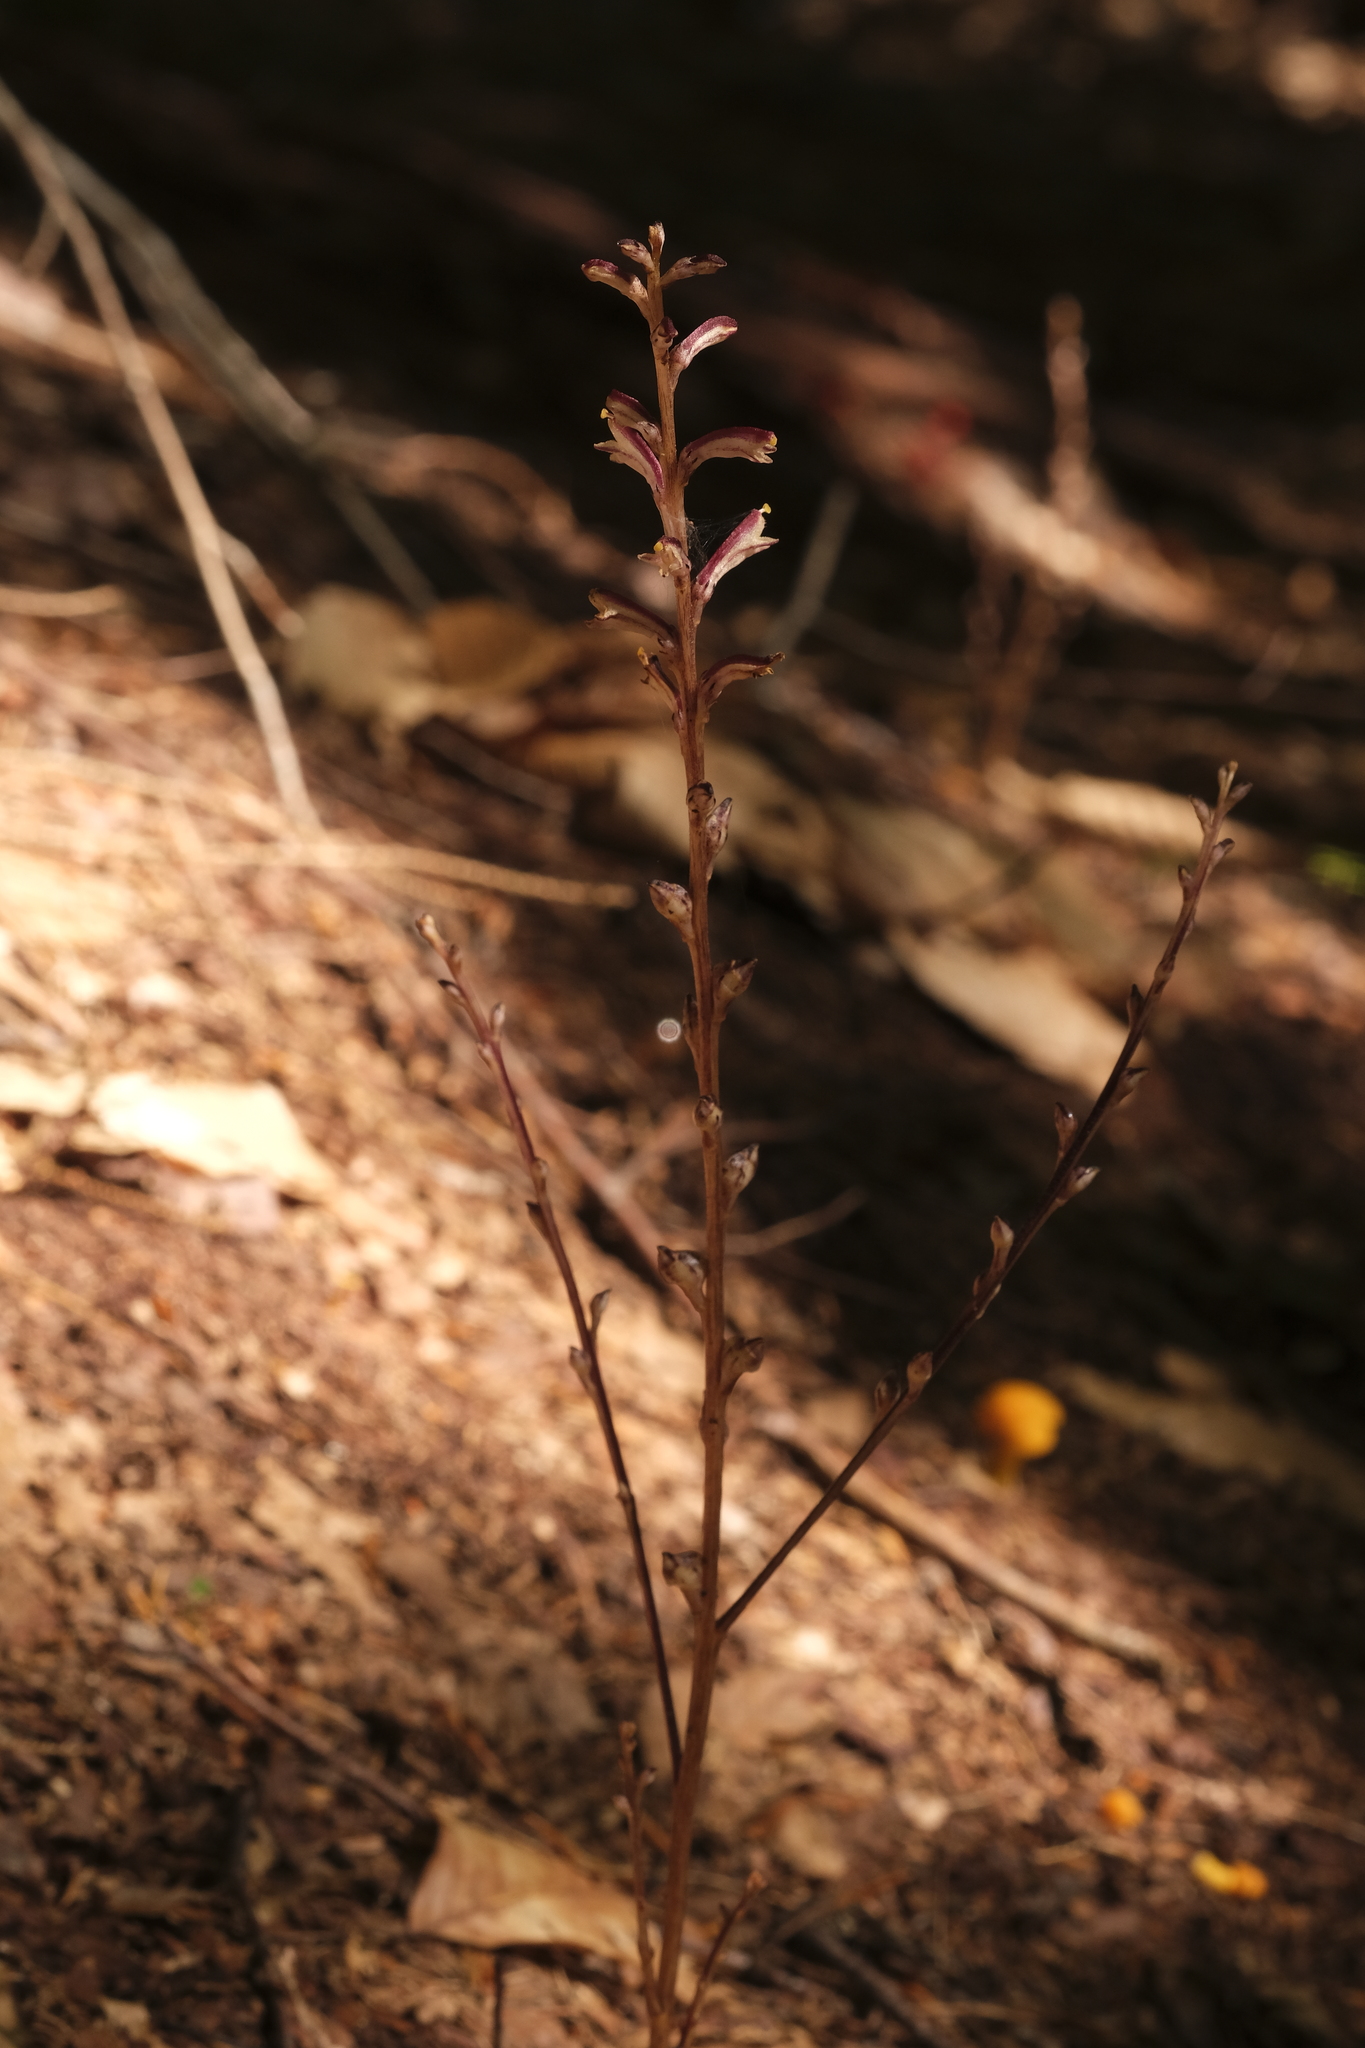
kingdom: Plantae
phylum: Tracheophyta
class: Magnoliopsida
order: Lamiales
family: Orobanchaceae
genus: Epifagus
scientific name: Epifagus virginiana
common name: Beechdrops
